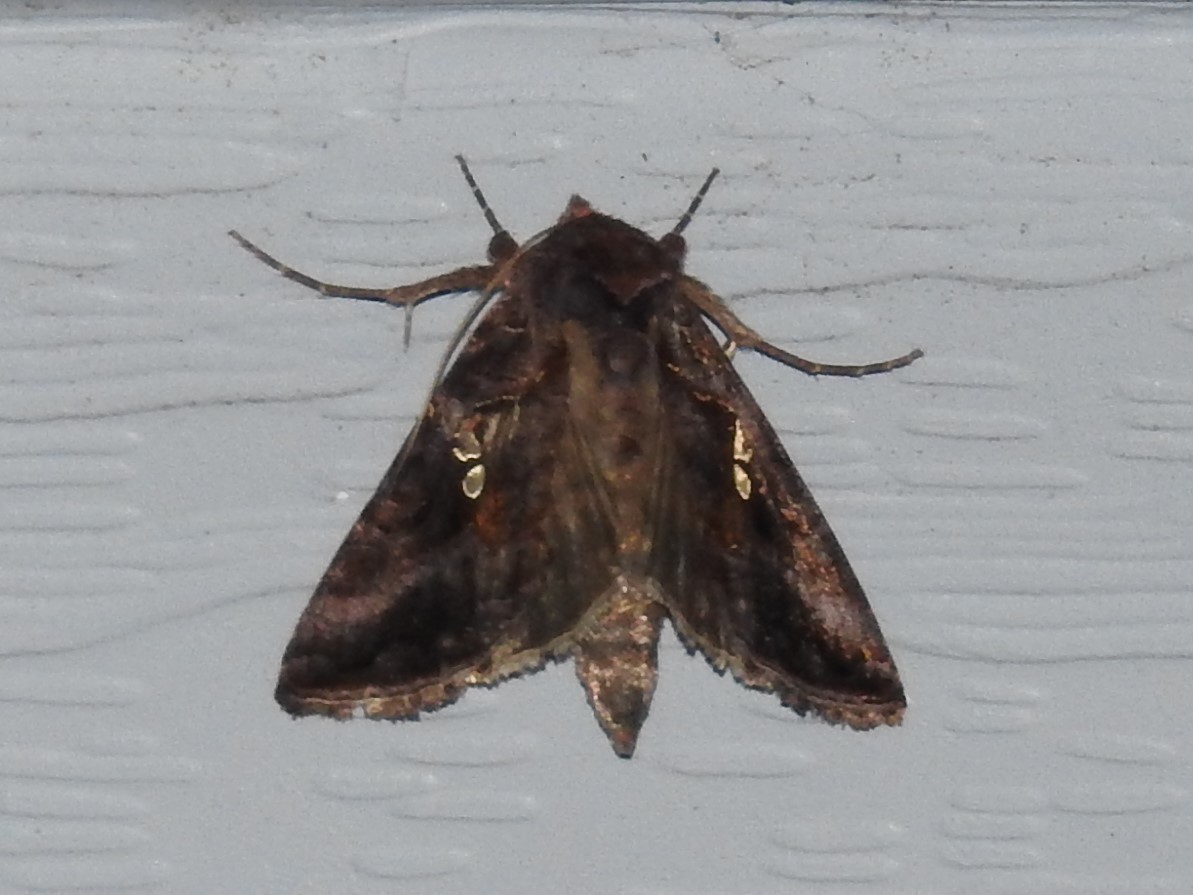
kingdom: Animalia
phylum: Arthropoda
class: Insecta
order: Lepidoptera
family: Noctuidae
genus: Autographa
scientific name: Autographa precationis
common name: Common looper moth
